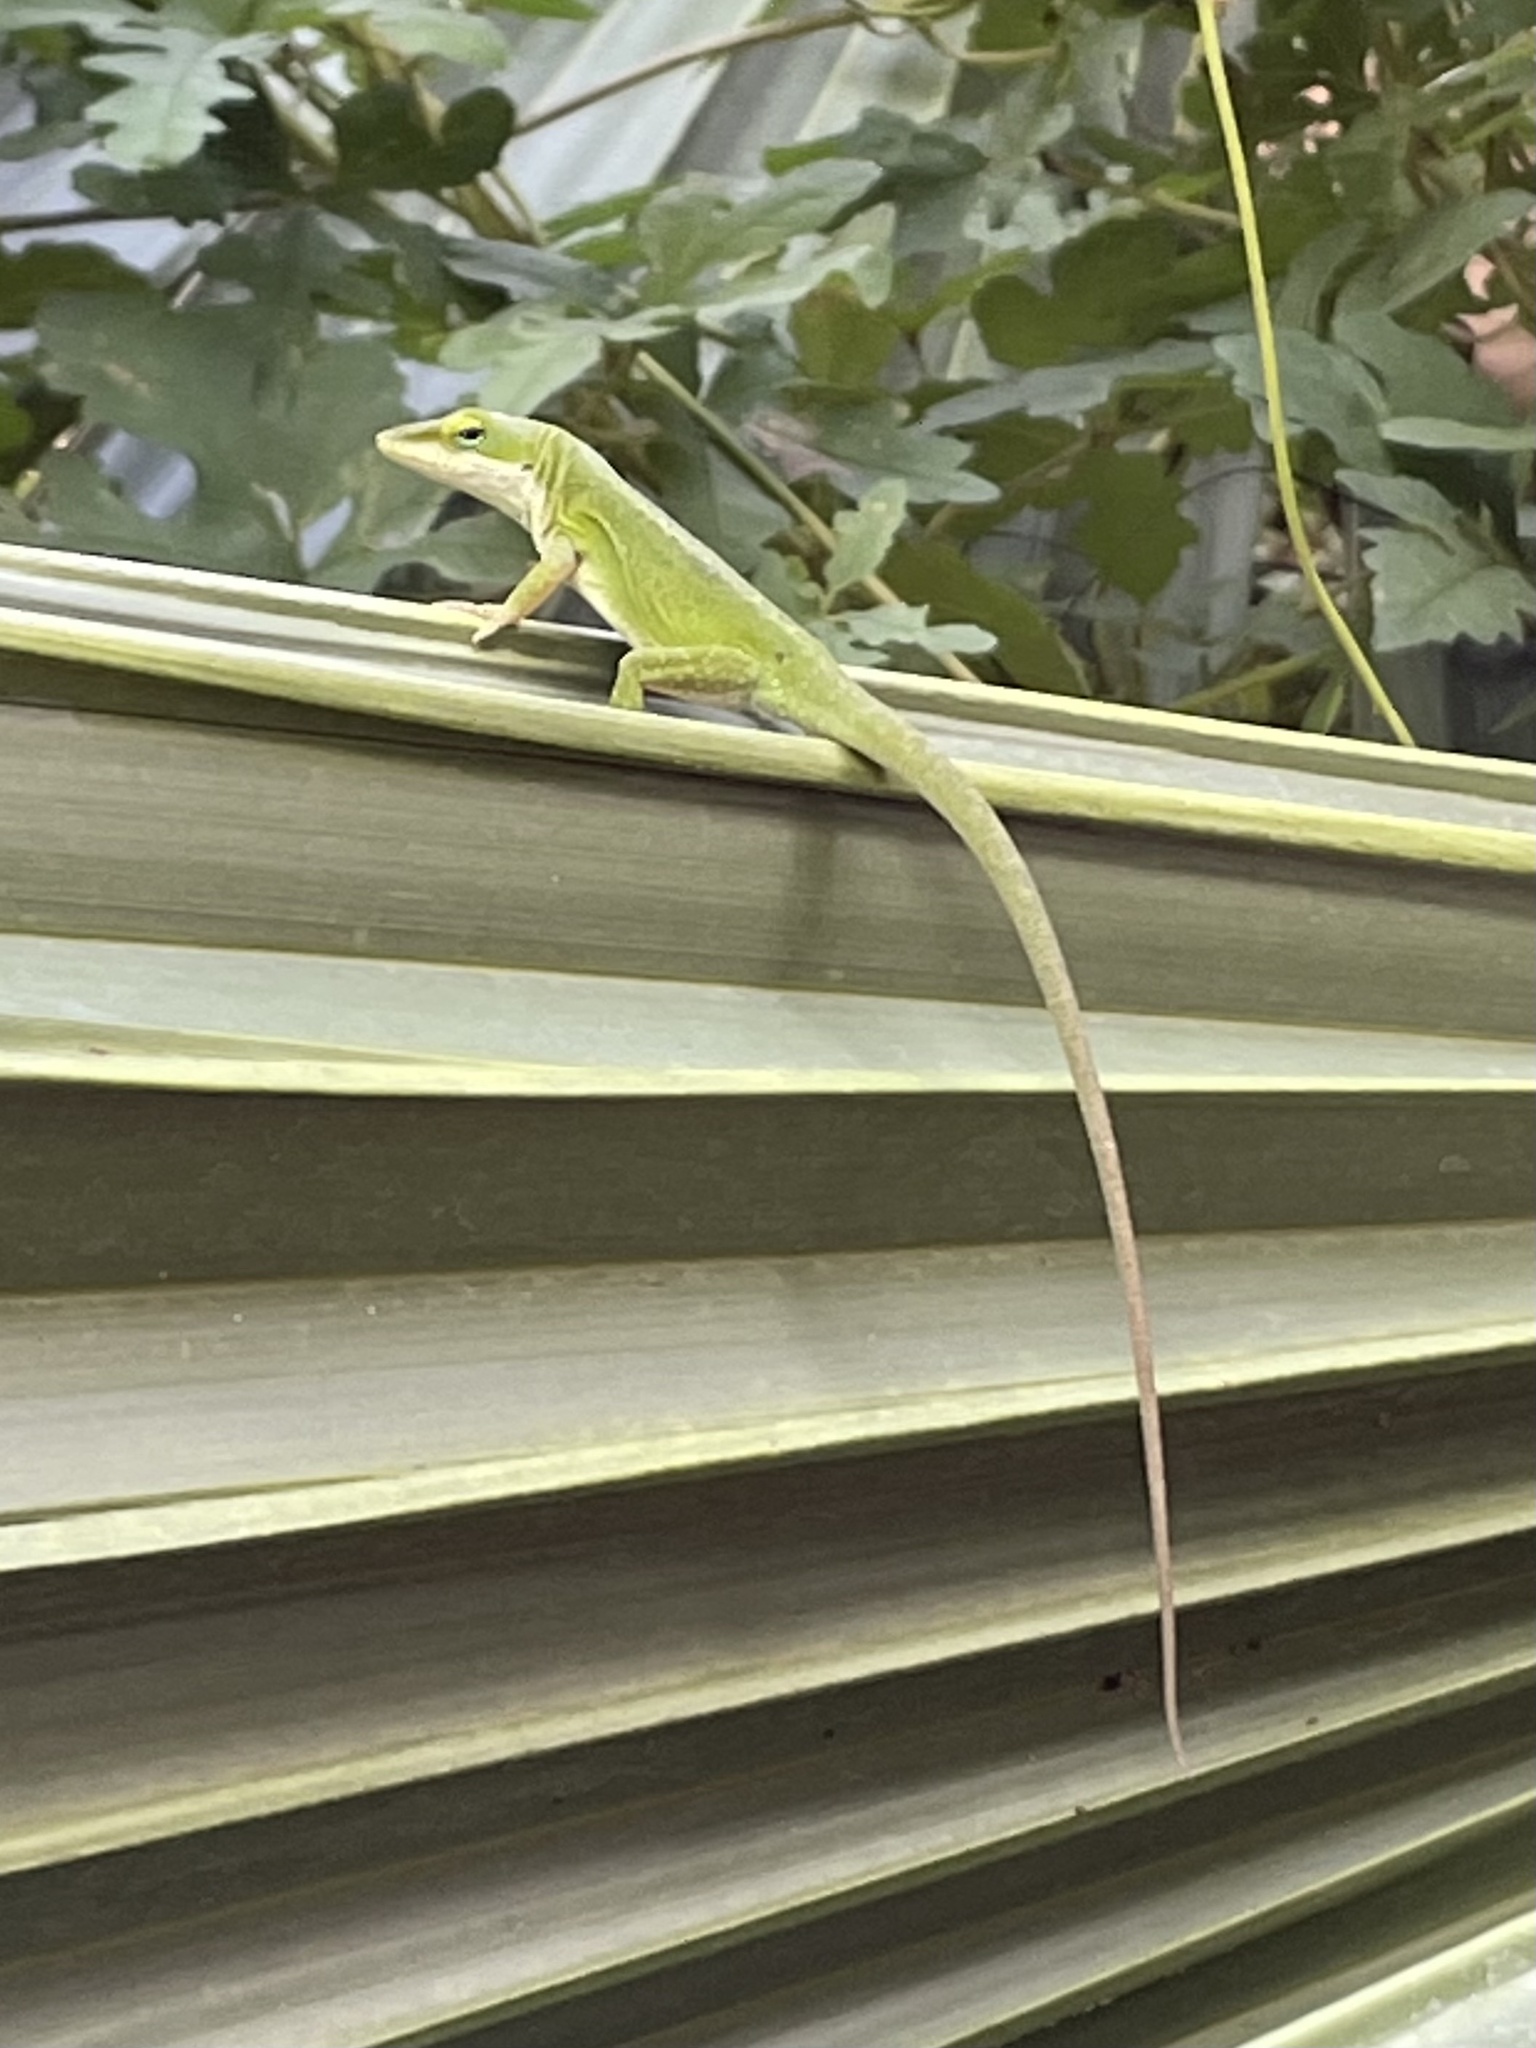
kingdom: Animalia
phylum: Chordata
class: Squamata
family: Dactyloidae
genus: Anolis
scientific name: Anolis carolinensis
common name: Green anole
